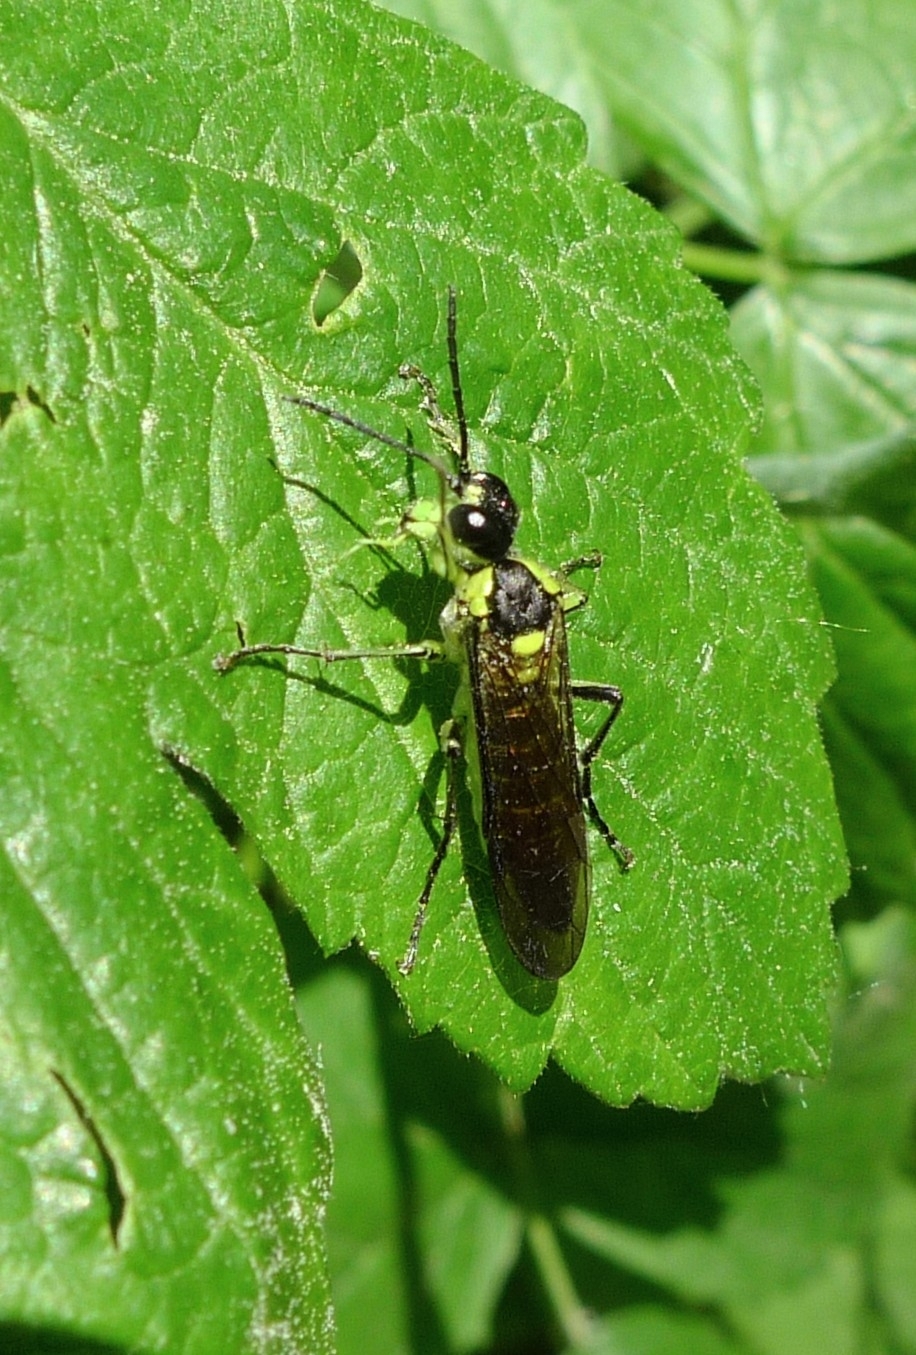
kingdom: Animalia
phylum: Arthropoda
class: Insecta
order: Hymenoptera
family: Tenthredinidae
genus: Tenthredo
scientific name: Tenthredo mesomela
